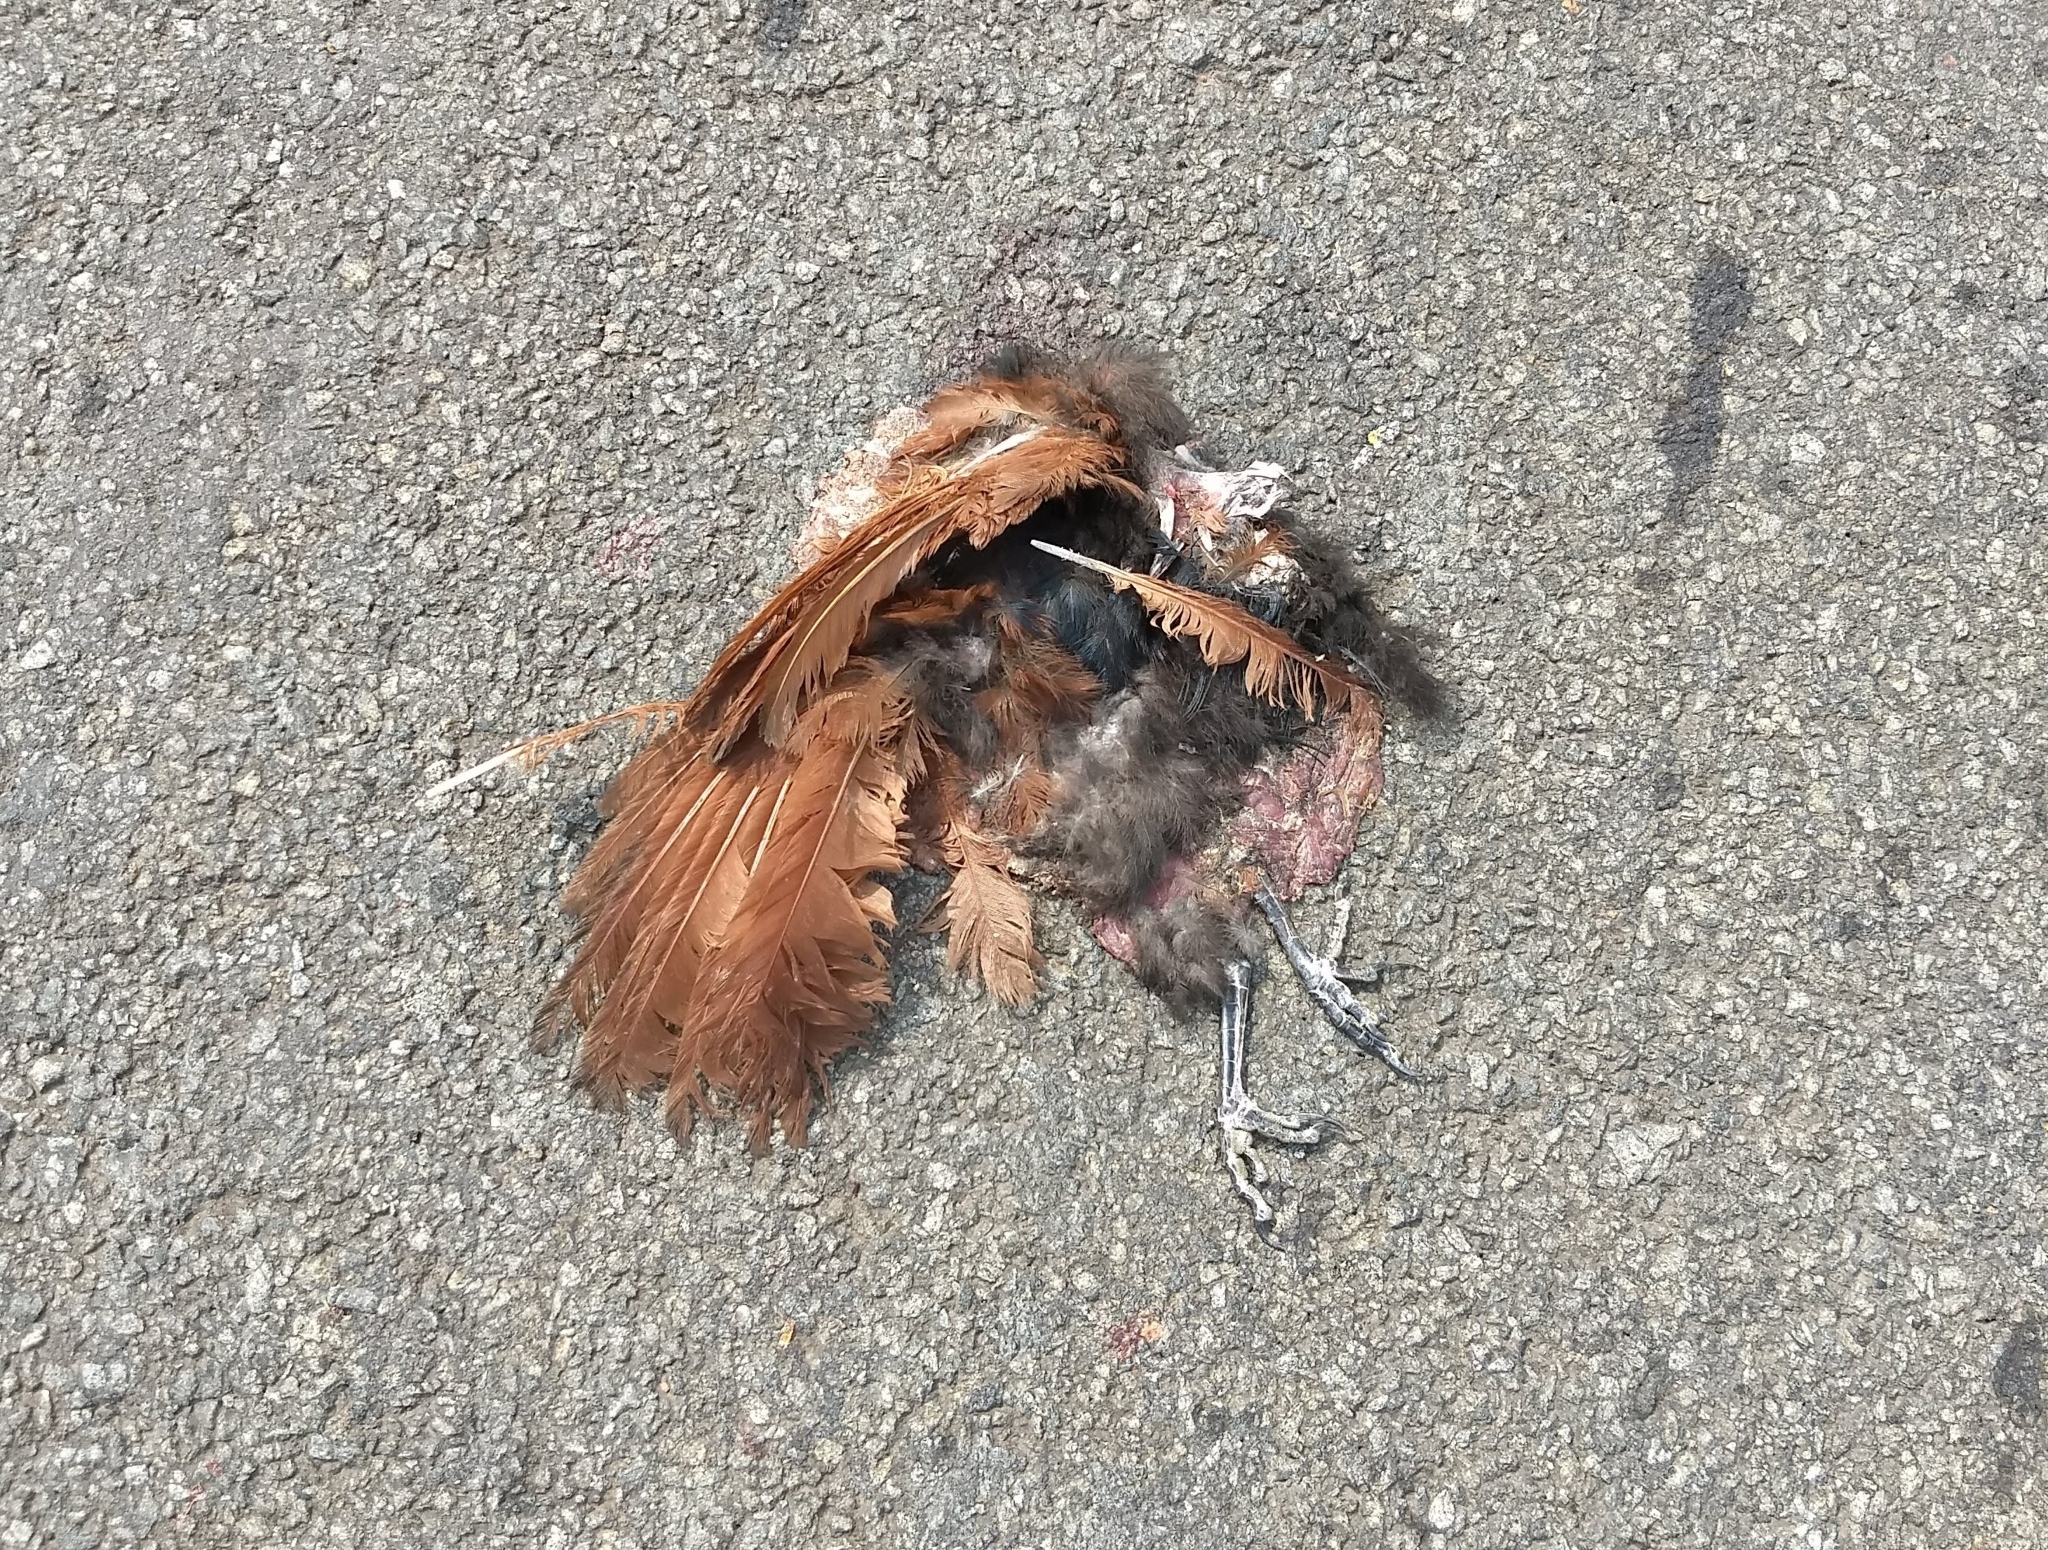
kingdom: Animalia
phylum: Chordata
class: Aves
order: Cuculiformes
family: Cuculidae
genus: Centropus
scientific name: Centropus sinensis
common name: Greater coucal
